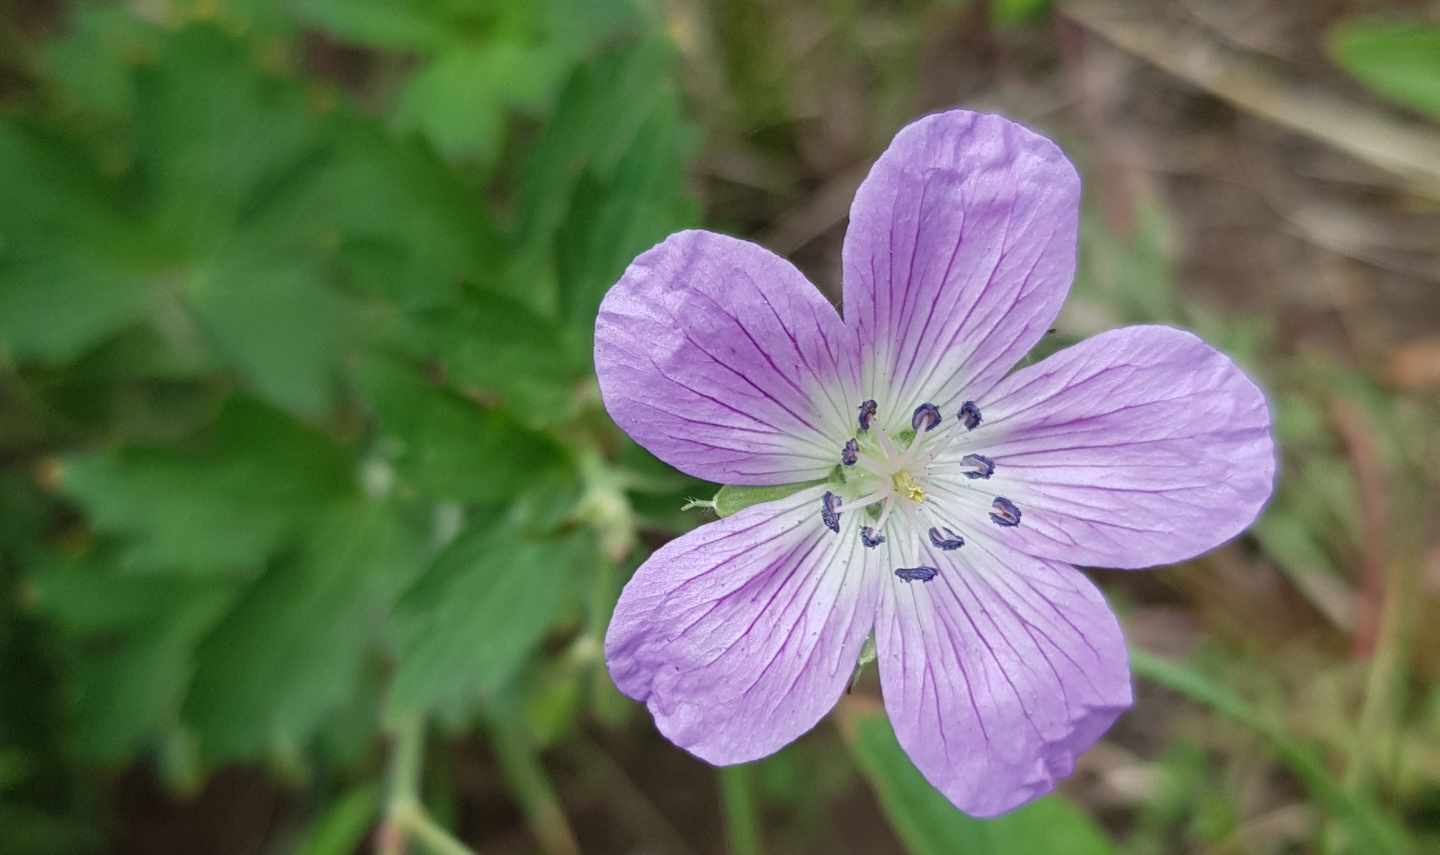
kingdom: Plantae
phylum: Tracheophyta
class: Magnoliopsida
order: Geraniales
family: Geraniaceae
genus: Geranium
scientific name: Geranium wlassovianum
